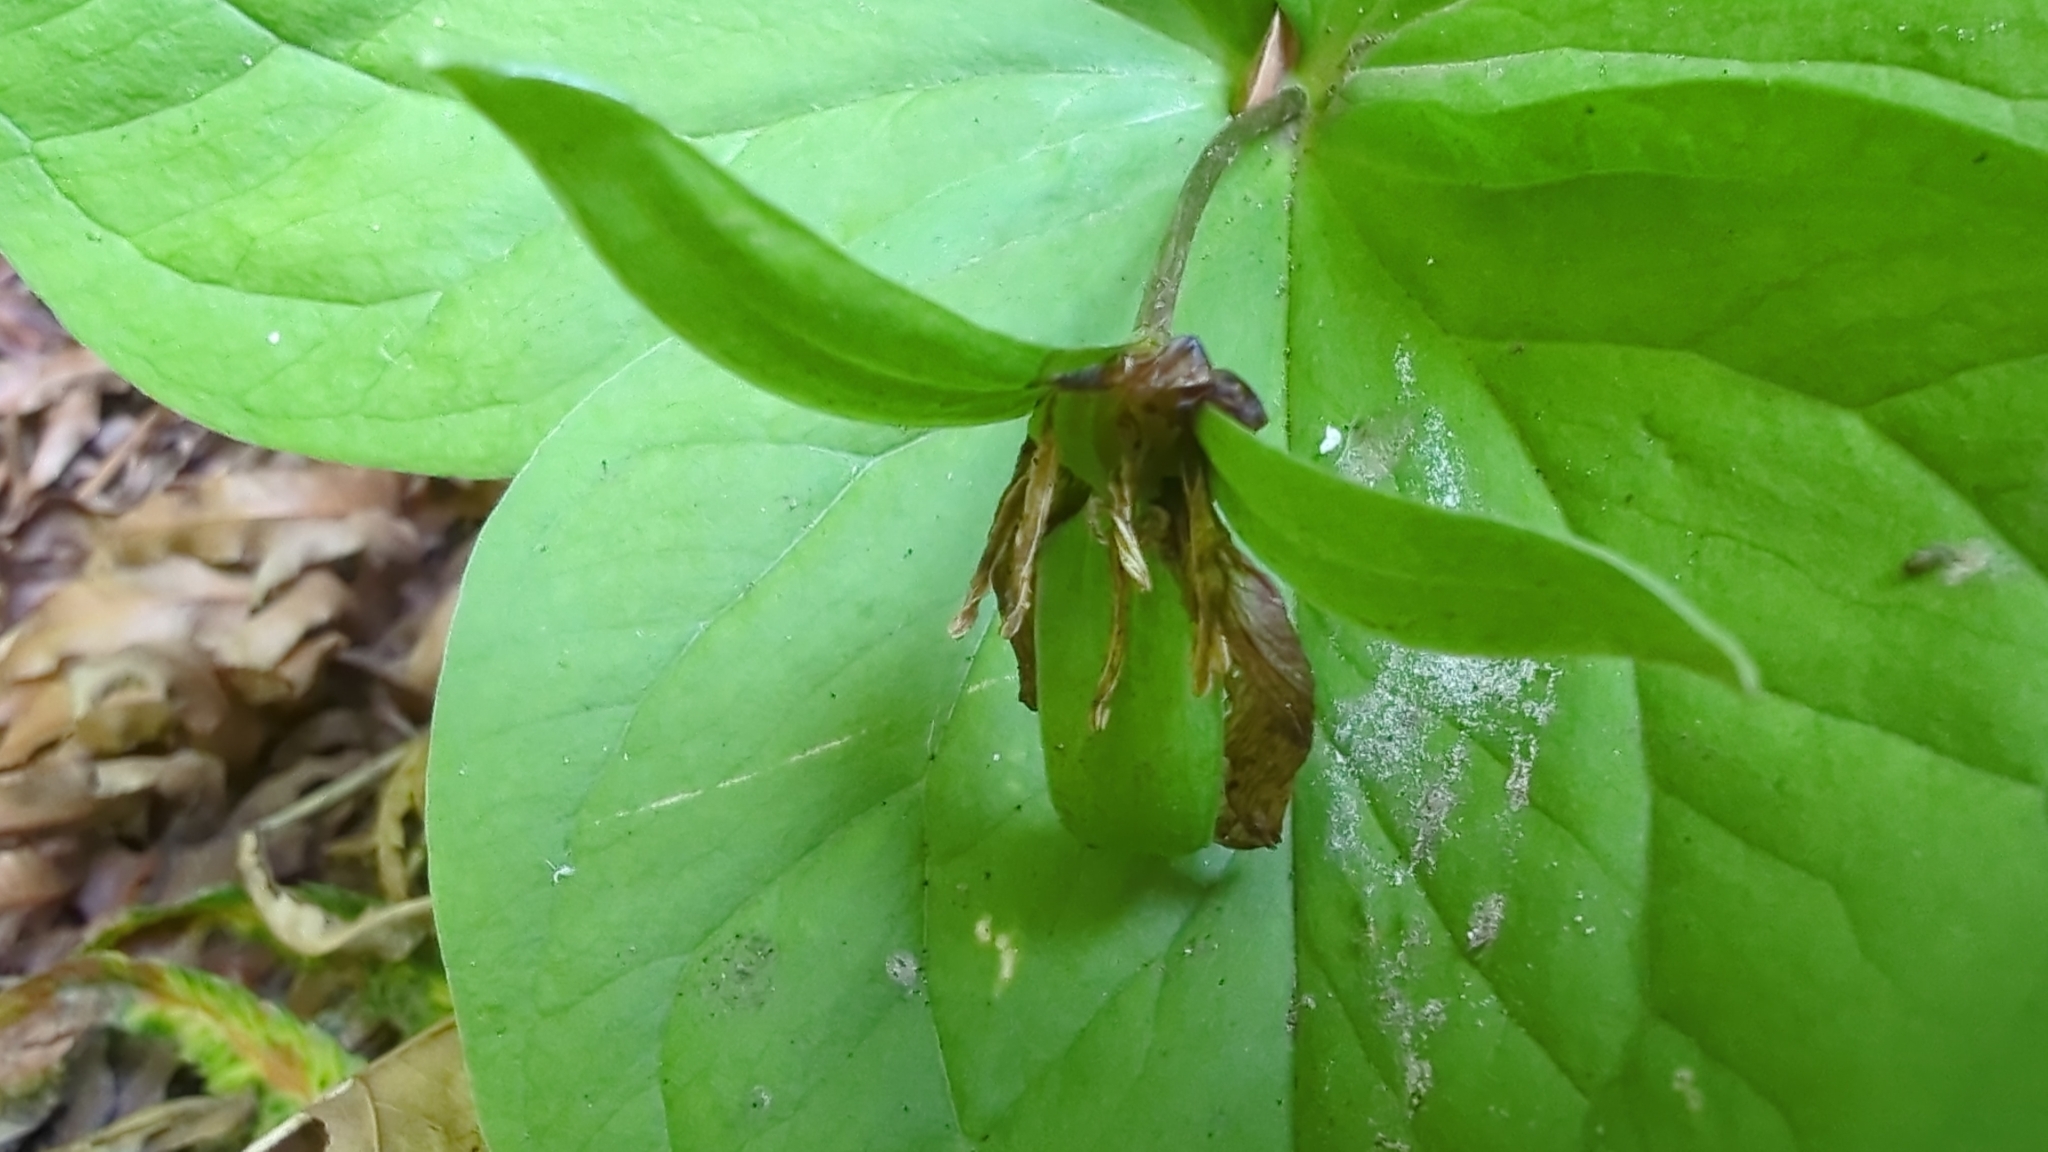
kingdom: Plantae
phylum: Tracheophyta
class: Liliopsida
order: Liliales
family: Melanthiaceae
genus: Trillium
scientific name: Trillium ovatum
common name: Pacific trillium
